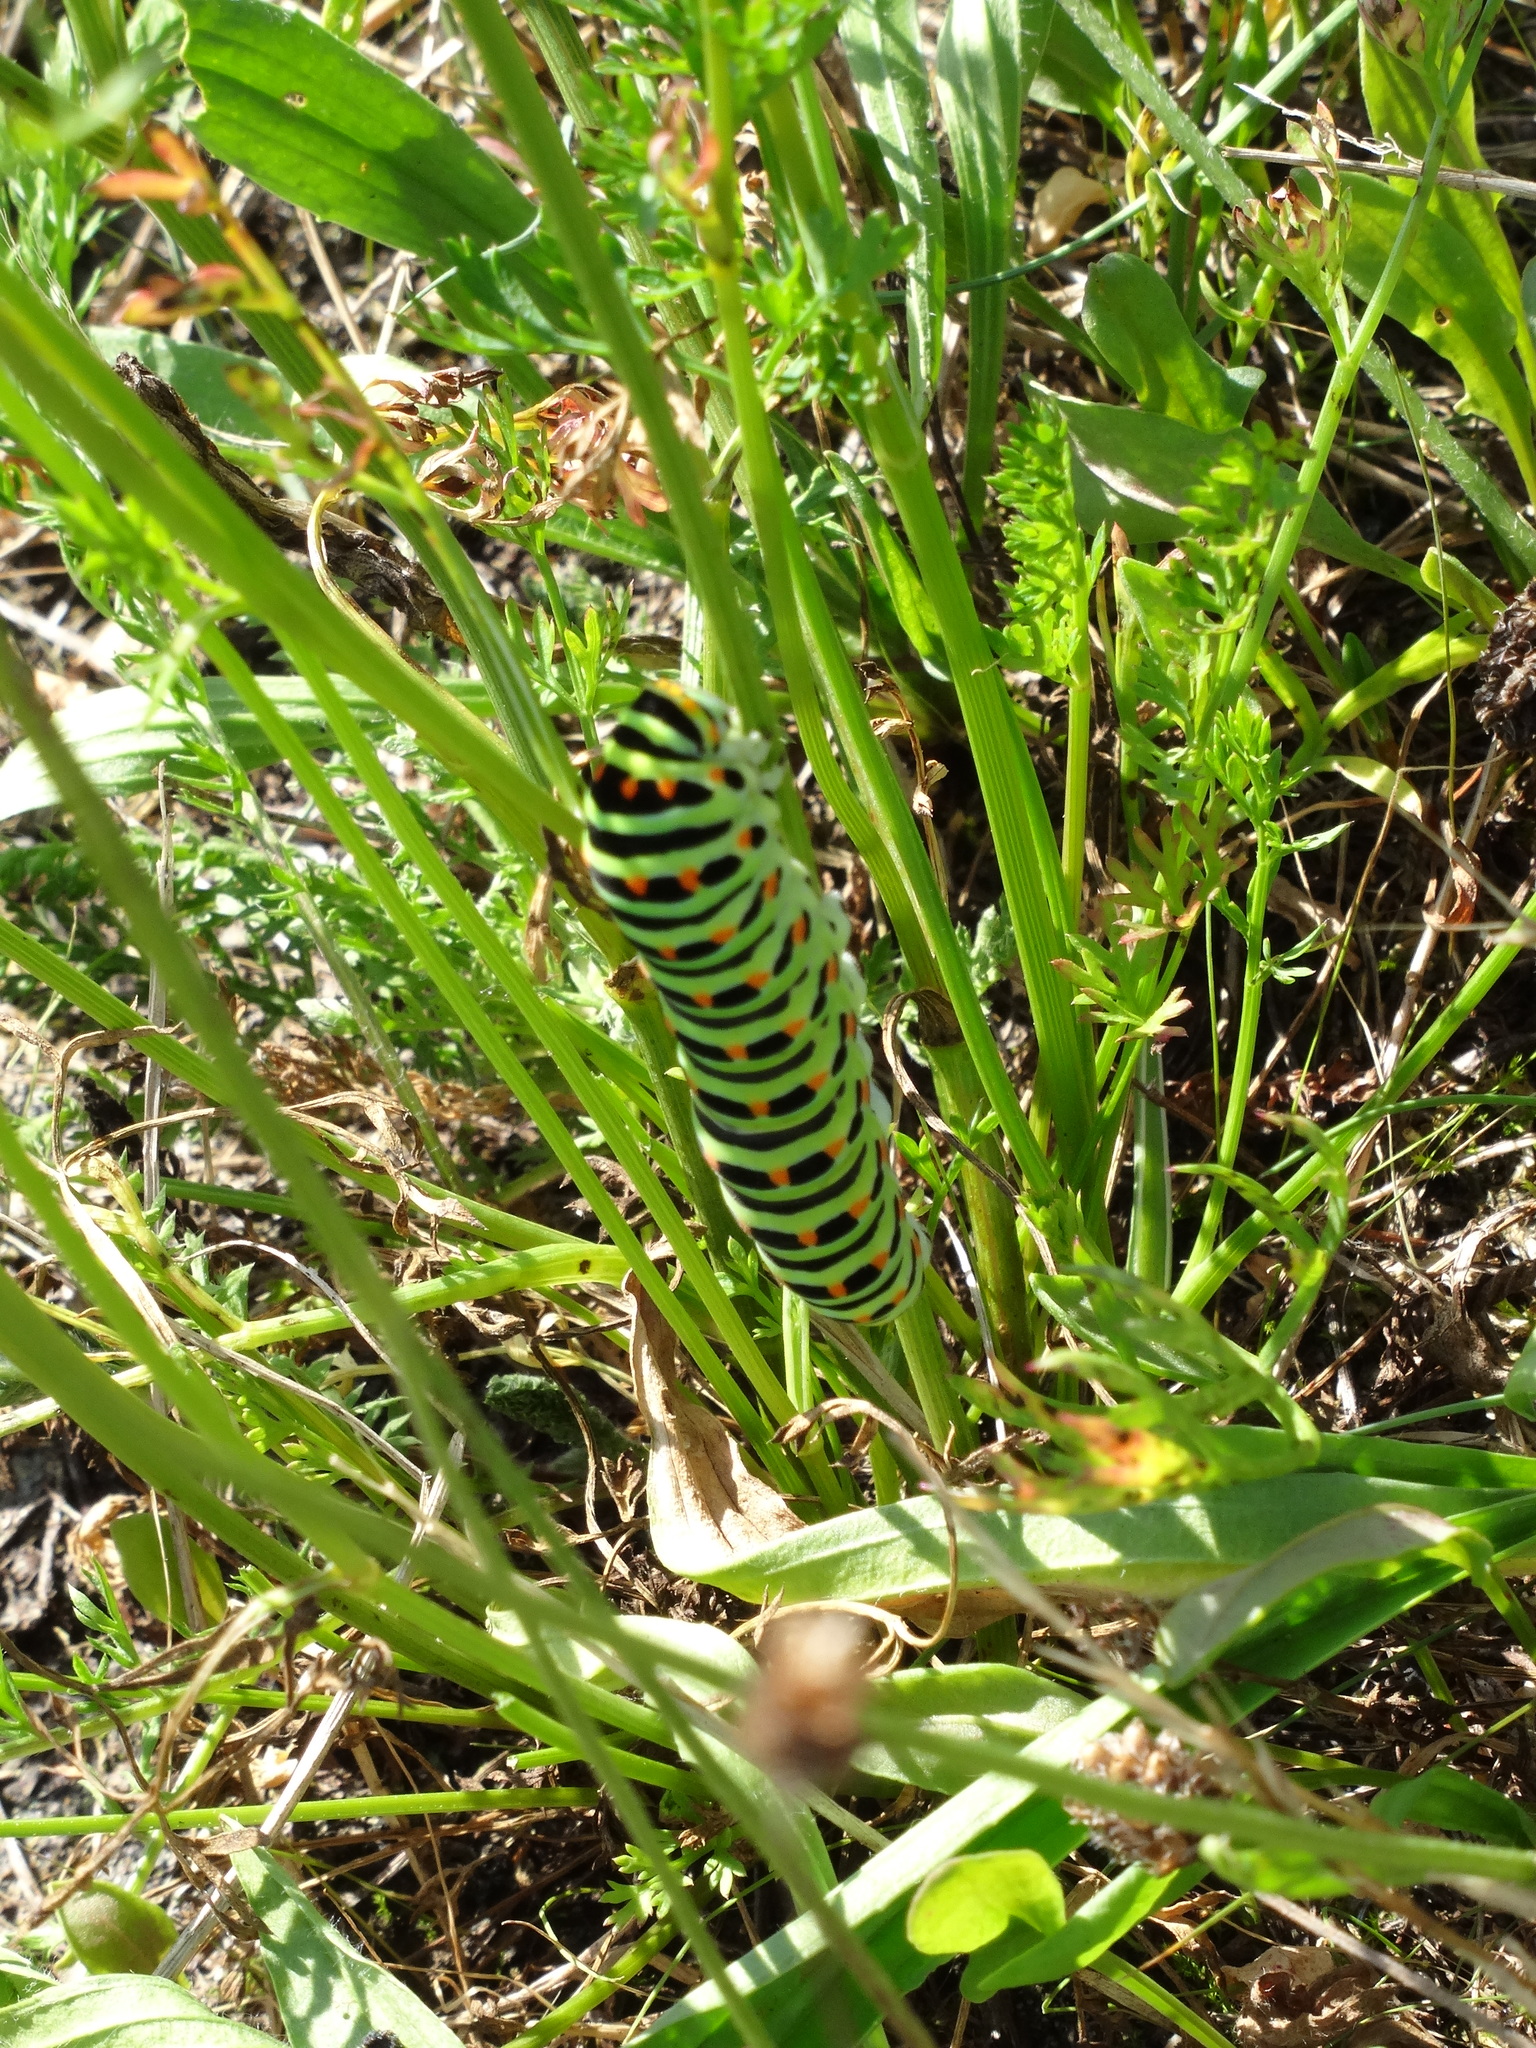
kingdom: Animalia
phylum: Arthropoda
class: Insecta
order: Lepidoptera
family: Papilionidae
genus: Papilio
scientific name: Papilio machaon
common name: Swallowtail
